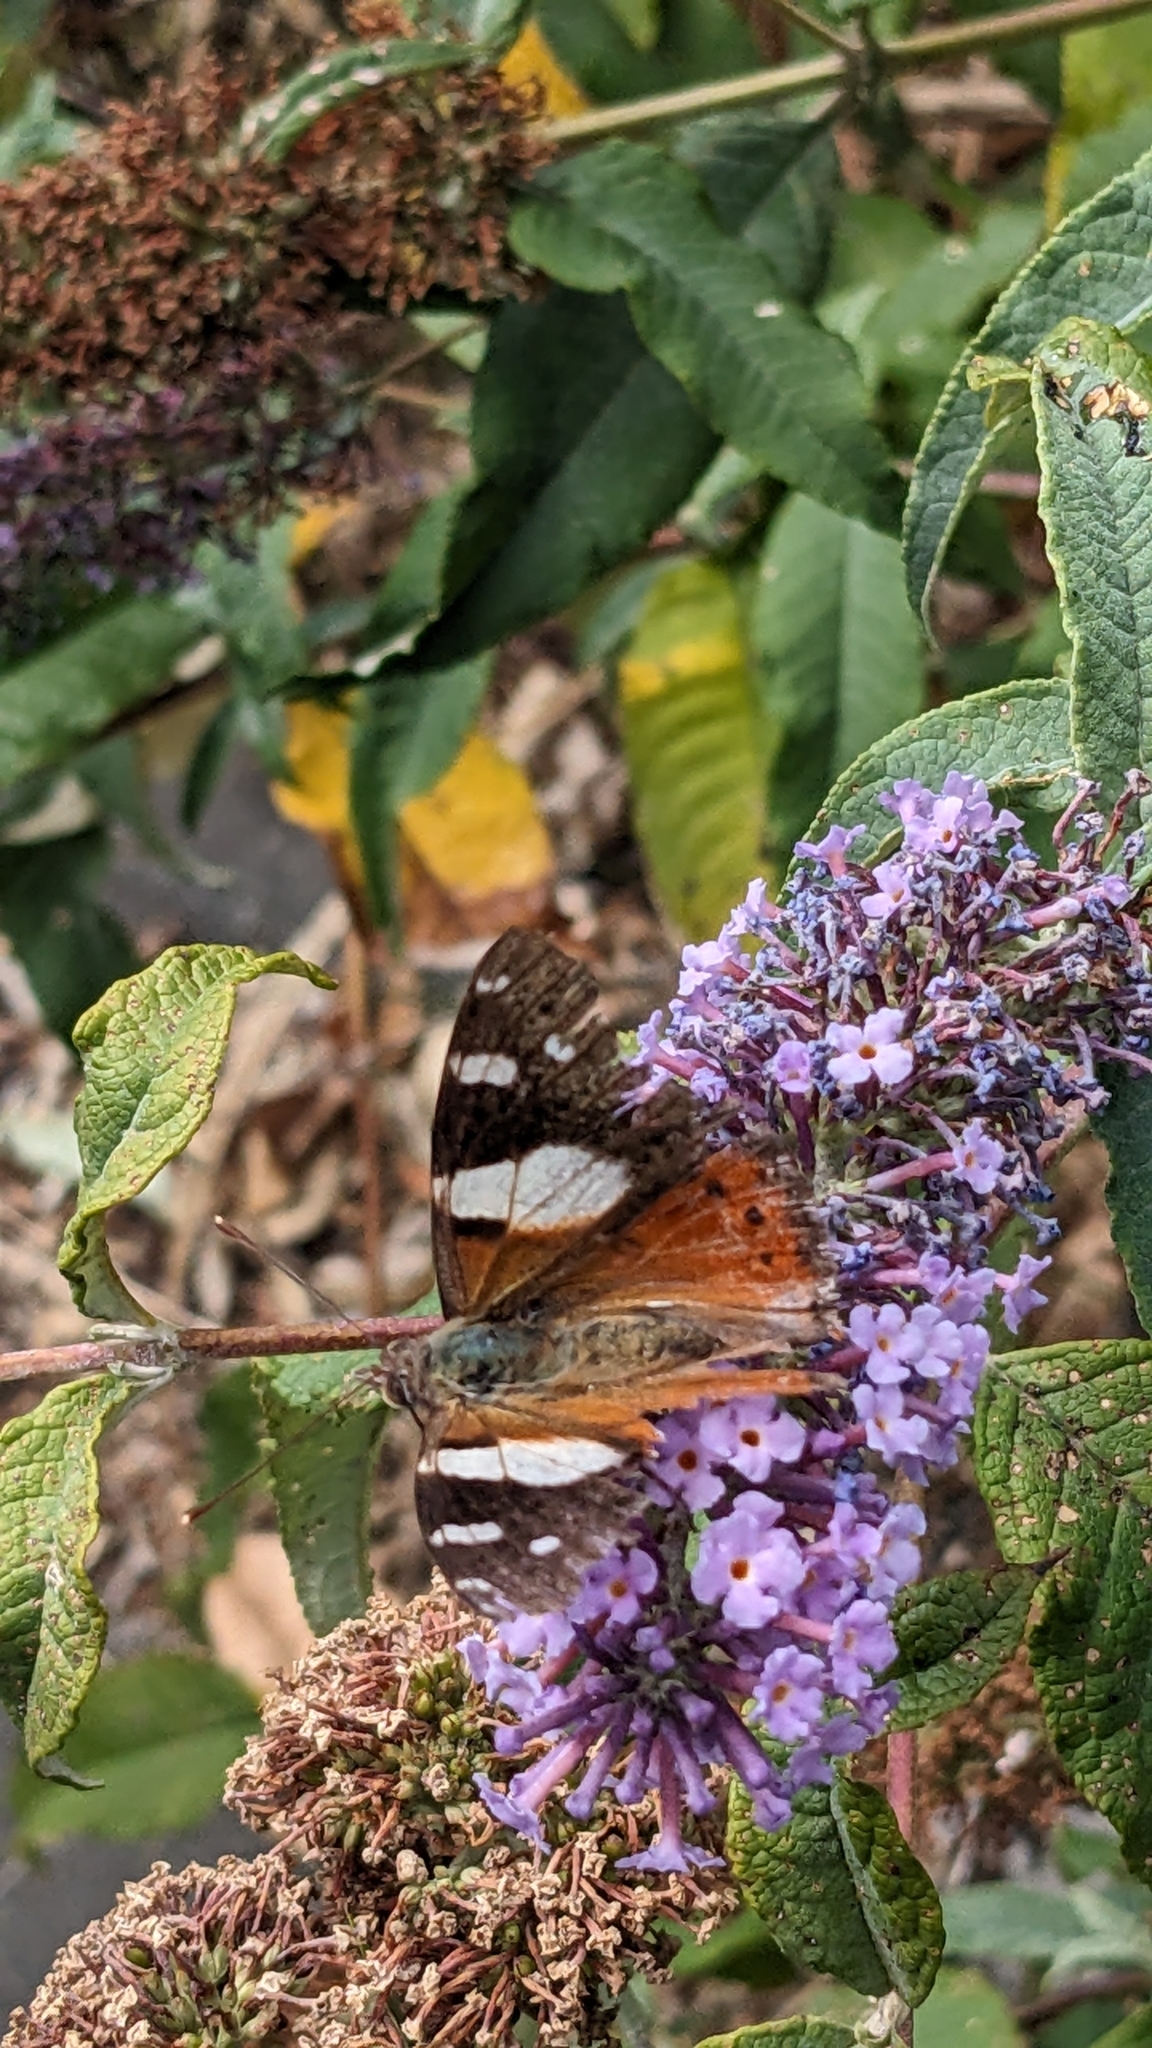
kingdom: Animalia
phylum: Arthropoda
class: Insecta
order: Lepidoptera
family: Nymphalidae
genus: Vanessa
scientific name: Vanessa itea
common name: Yellow admiral
